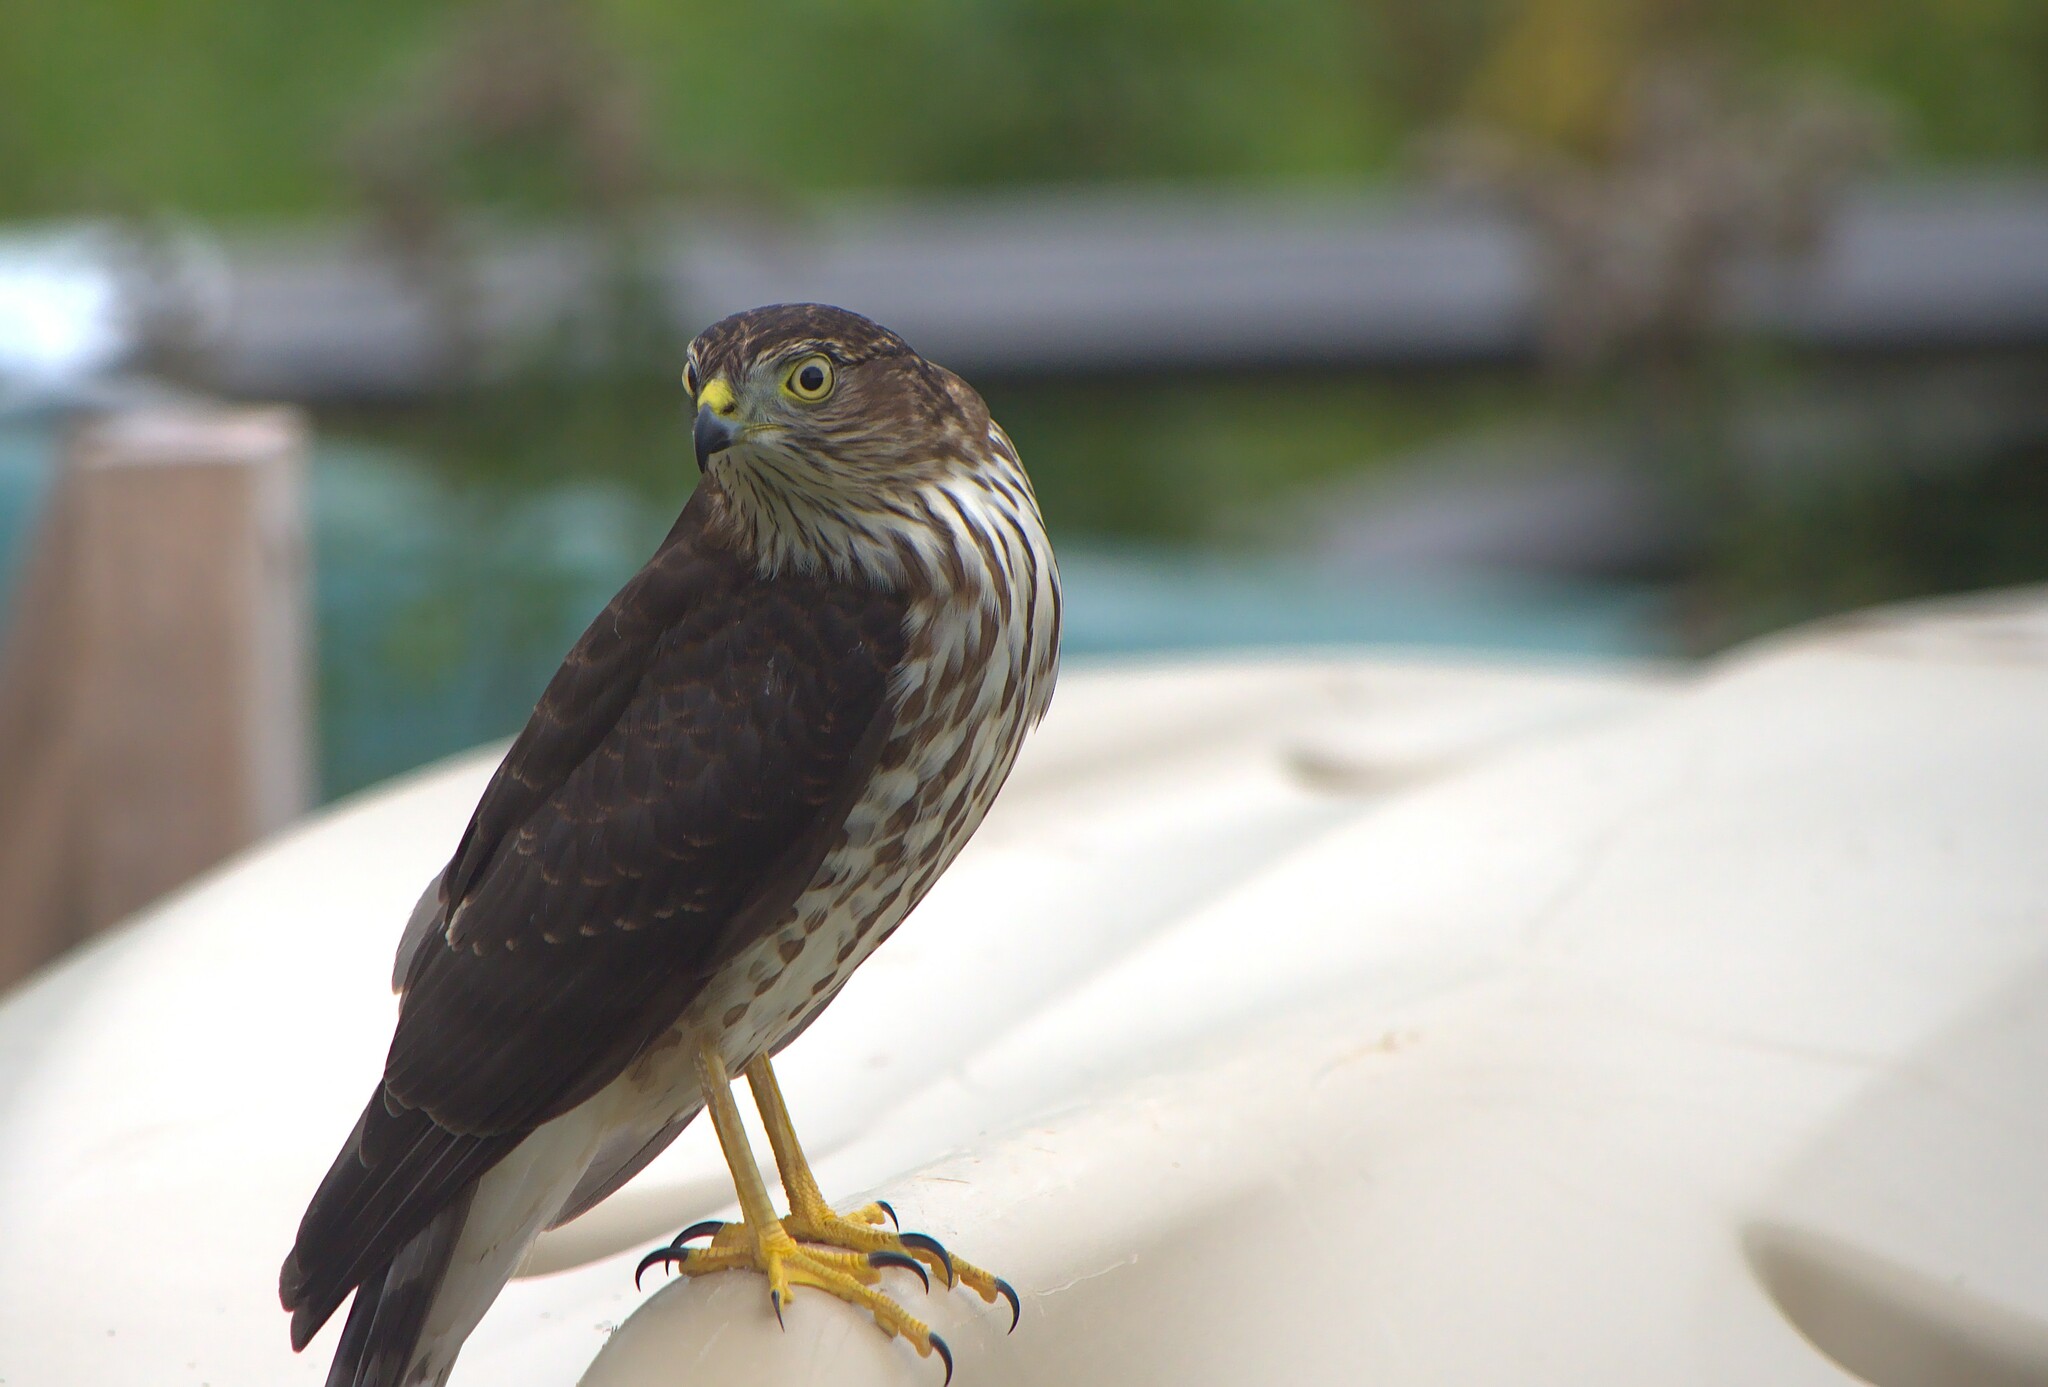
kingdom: Animalia
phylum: Chordata
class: Aves
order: Accipitriformes
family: Accipitridae
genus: Accipiter
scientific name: Accipiter striatus
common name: Sharp-shinned hawk
